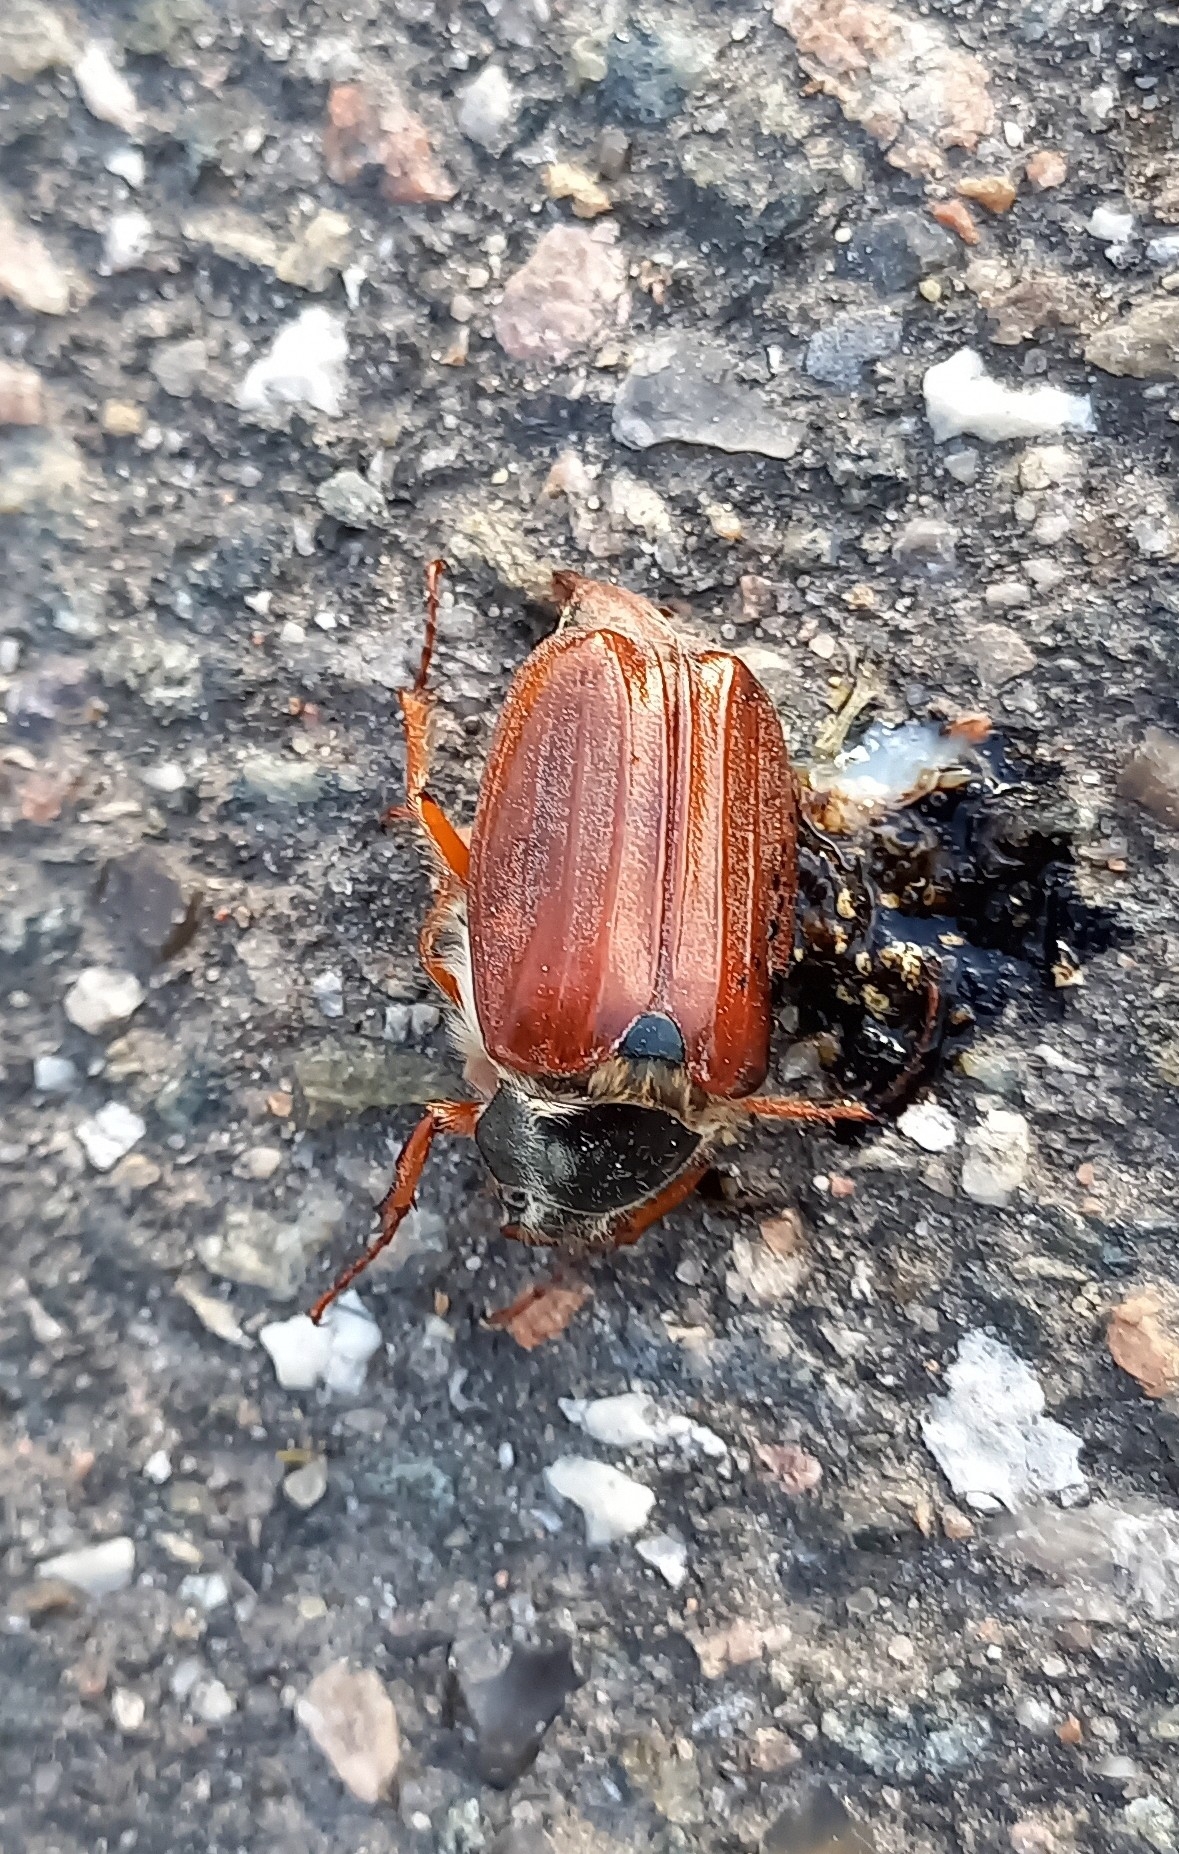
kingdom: Animalia
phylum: Arthropoda
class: Insecta
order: Coleoptera
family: Scarabaeidae
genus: Melolontha
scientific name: Melolontha melolontha
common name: Cockchafer maybeetle
